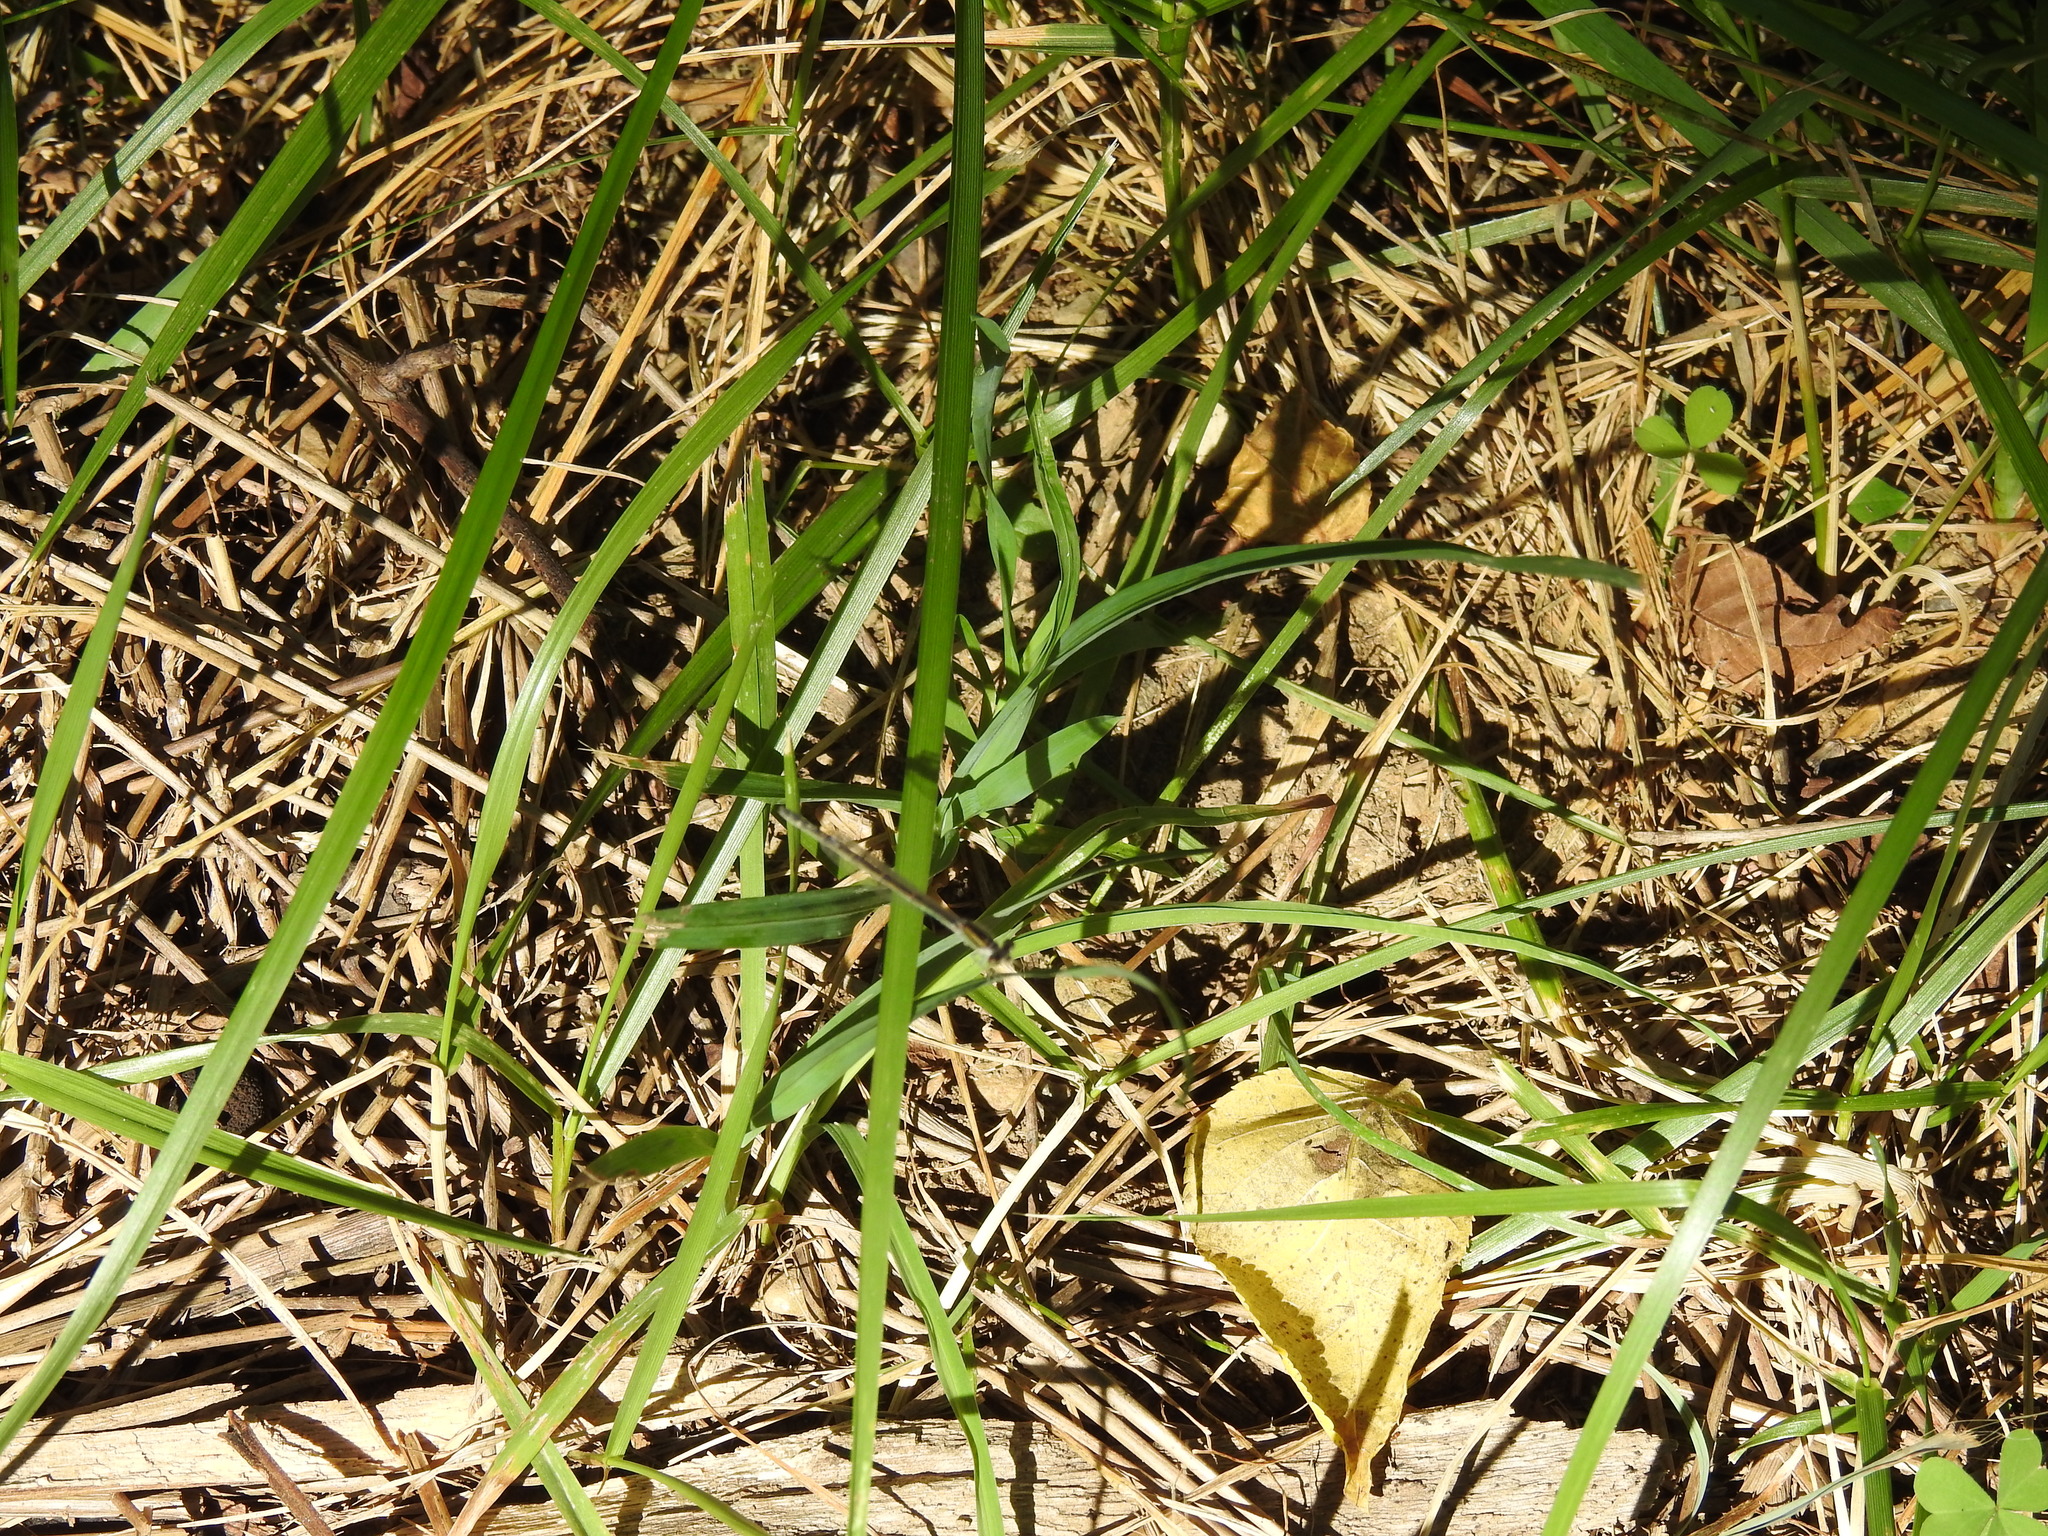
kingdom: Animalia
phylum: Arthropoda
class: Insecta
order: Odonata
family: Coenagrionidae
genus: Ischnura
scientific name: Ischnura verticalis
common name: Eastern forktail
